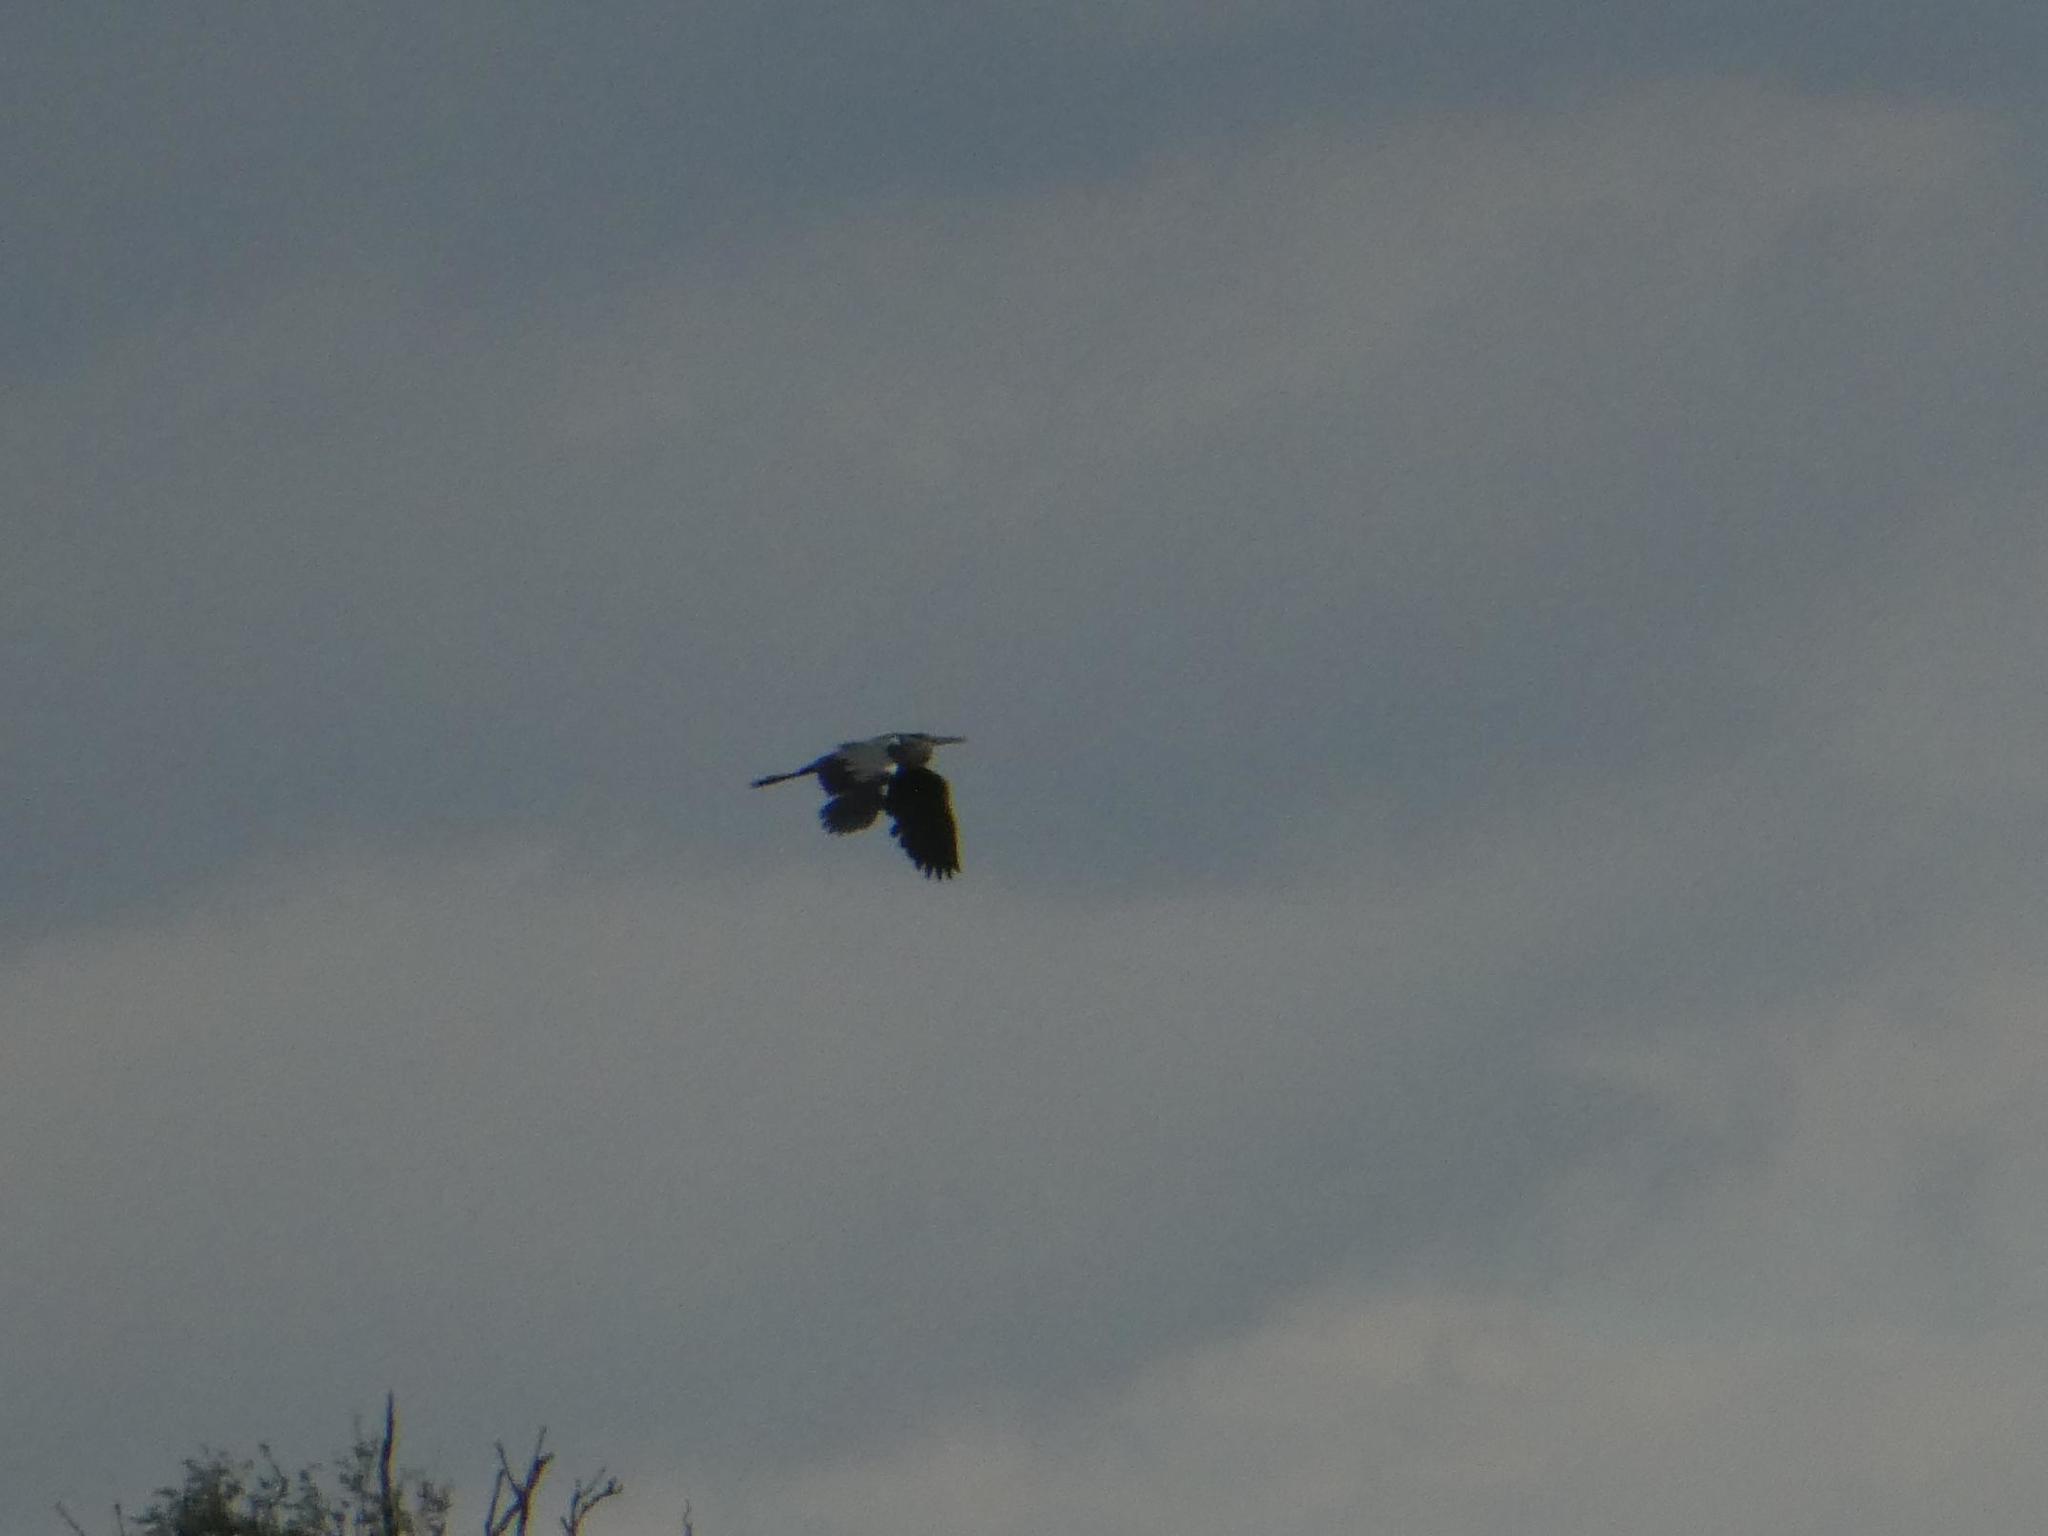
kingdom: Animalia
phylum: Chordata
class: Aves
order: Pelecaniformes
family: Ardeidae
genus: Ardea
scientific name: Ardea cinerea
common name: Grey heron
